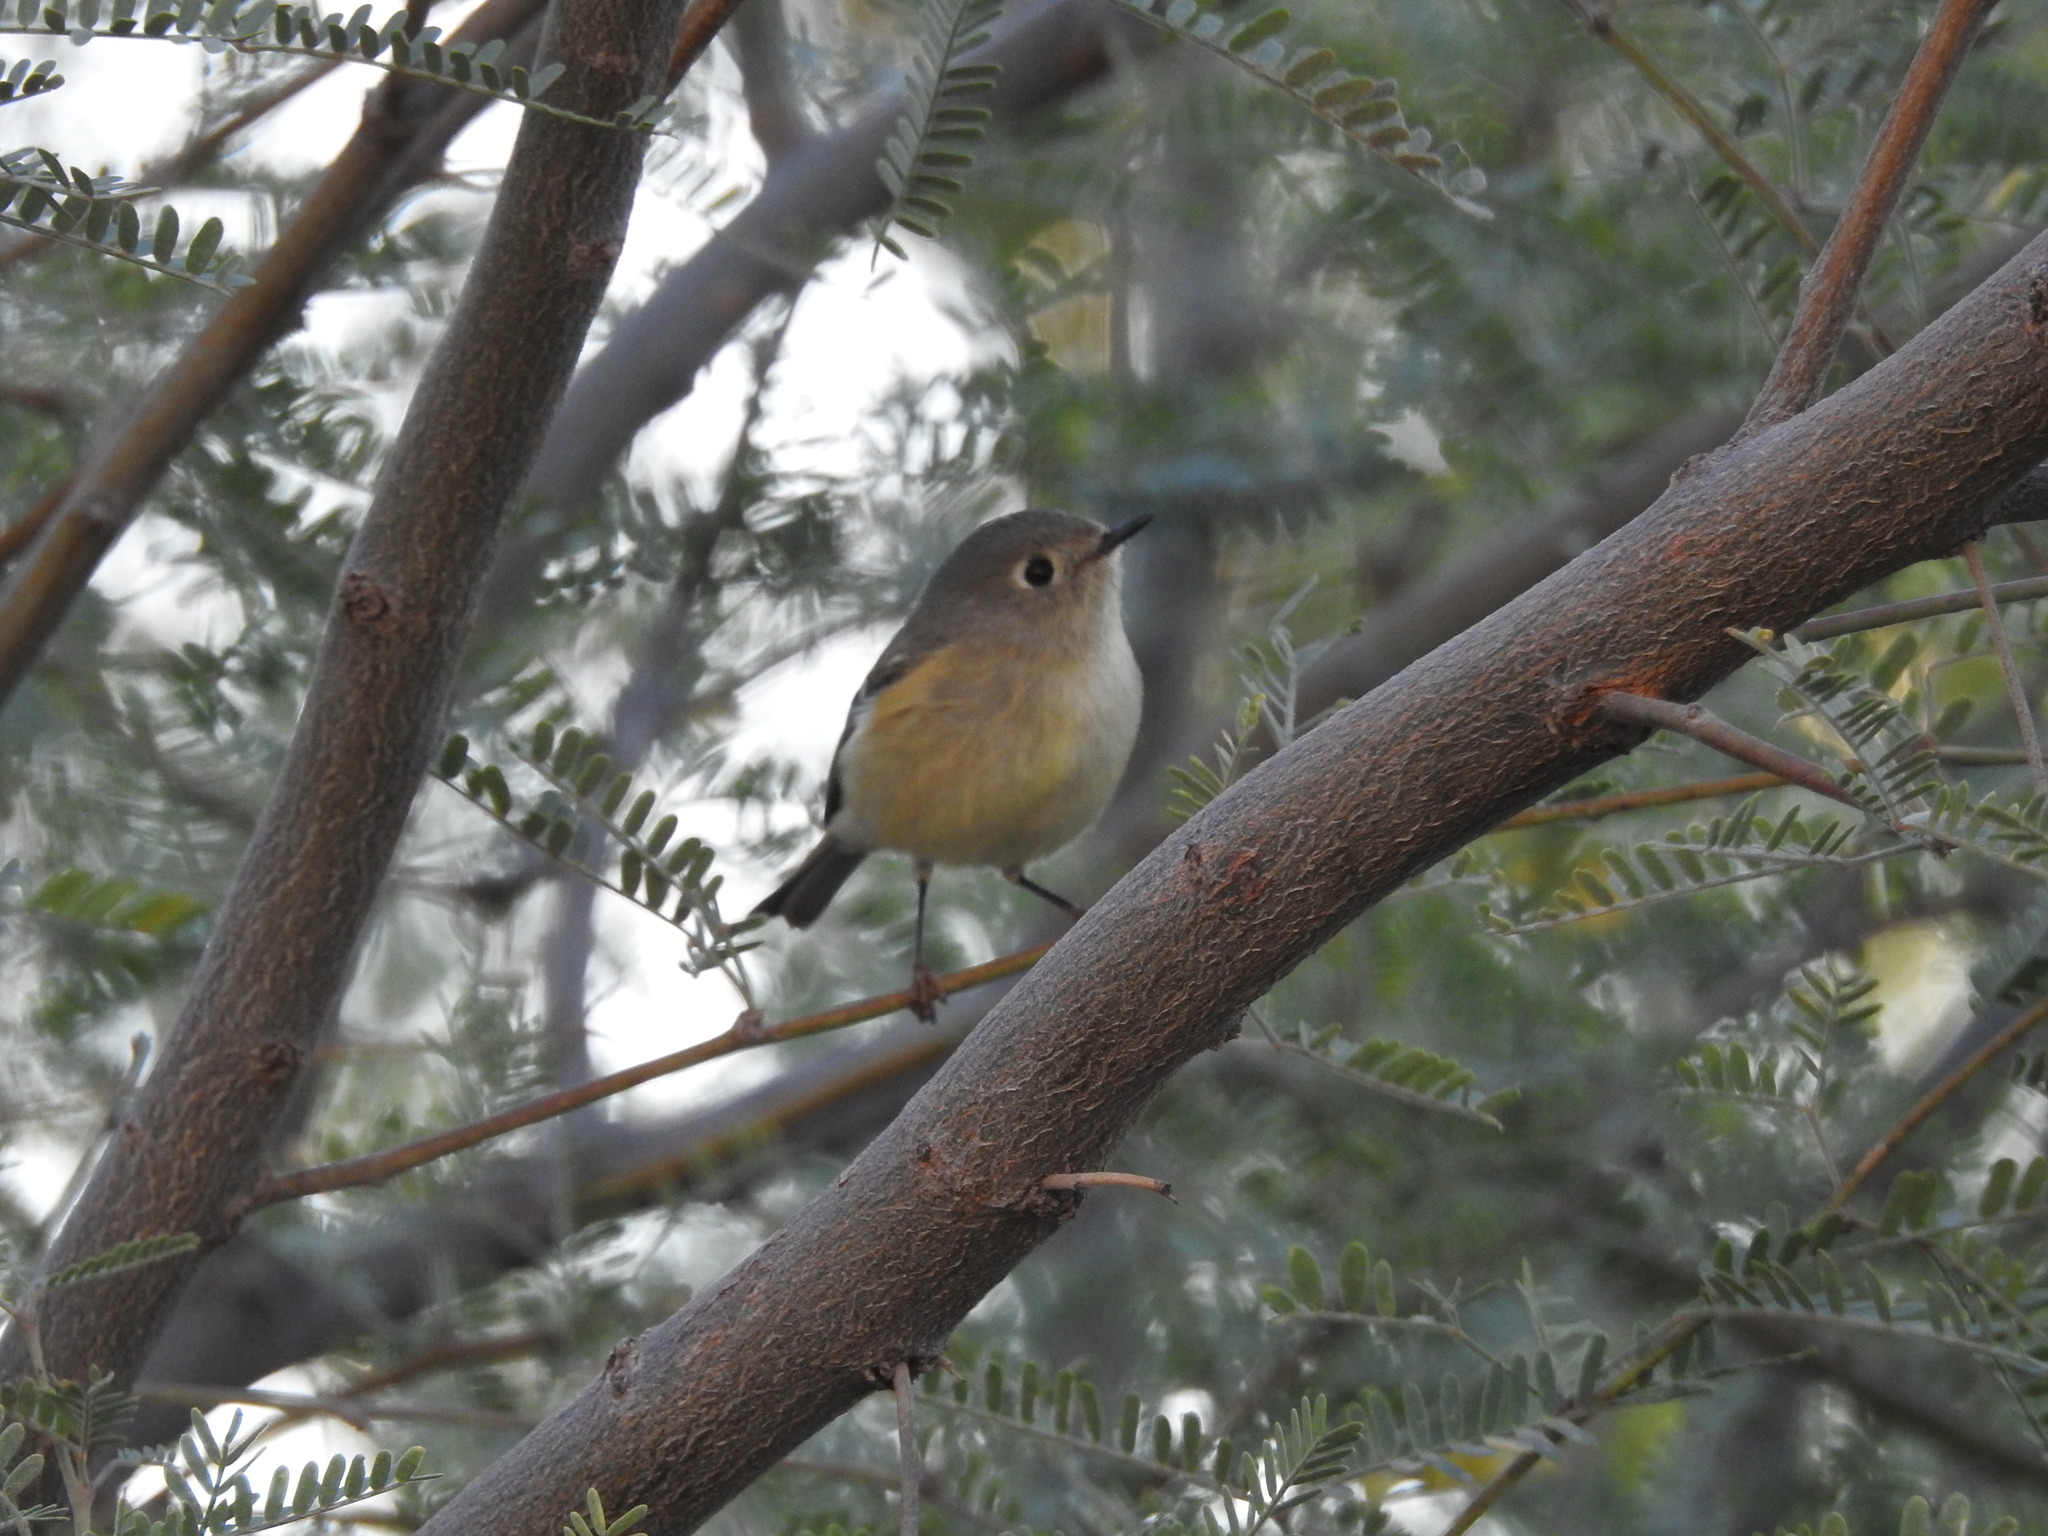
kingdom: Animalia
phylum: Chordata
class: Aves
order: Passeriformes
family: Regulidae
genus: Regulus
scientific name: Regulus calendula
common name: Ruby-crowned kinglet
